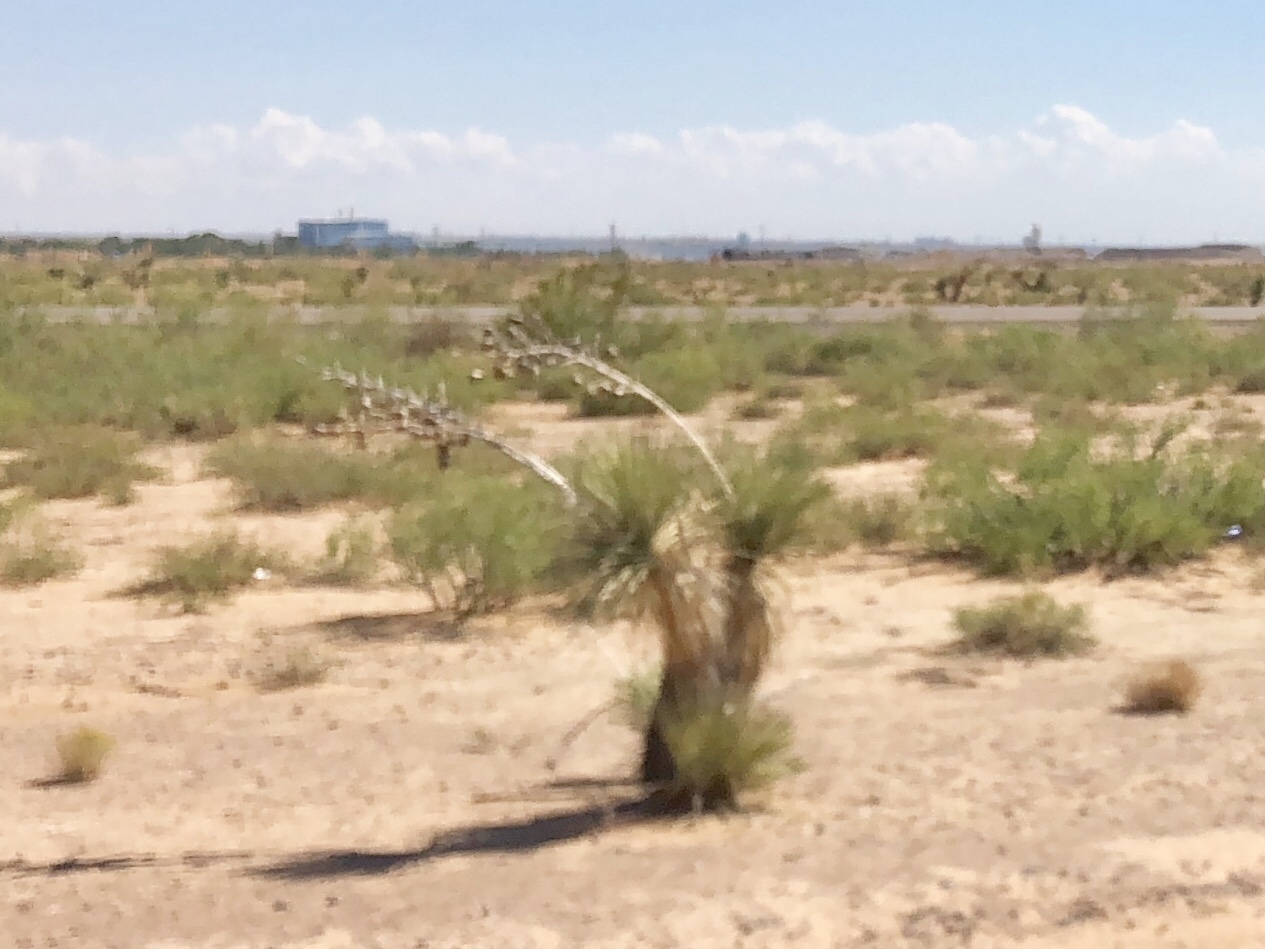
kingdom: Plantae
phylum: Tracheophyta
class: Liliopsida
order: Asparagales
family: Asparagaceae
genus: Yucca
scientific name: Yucca elata
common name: Palmella
